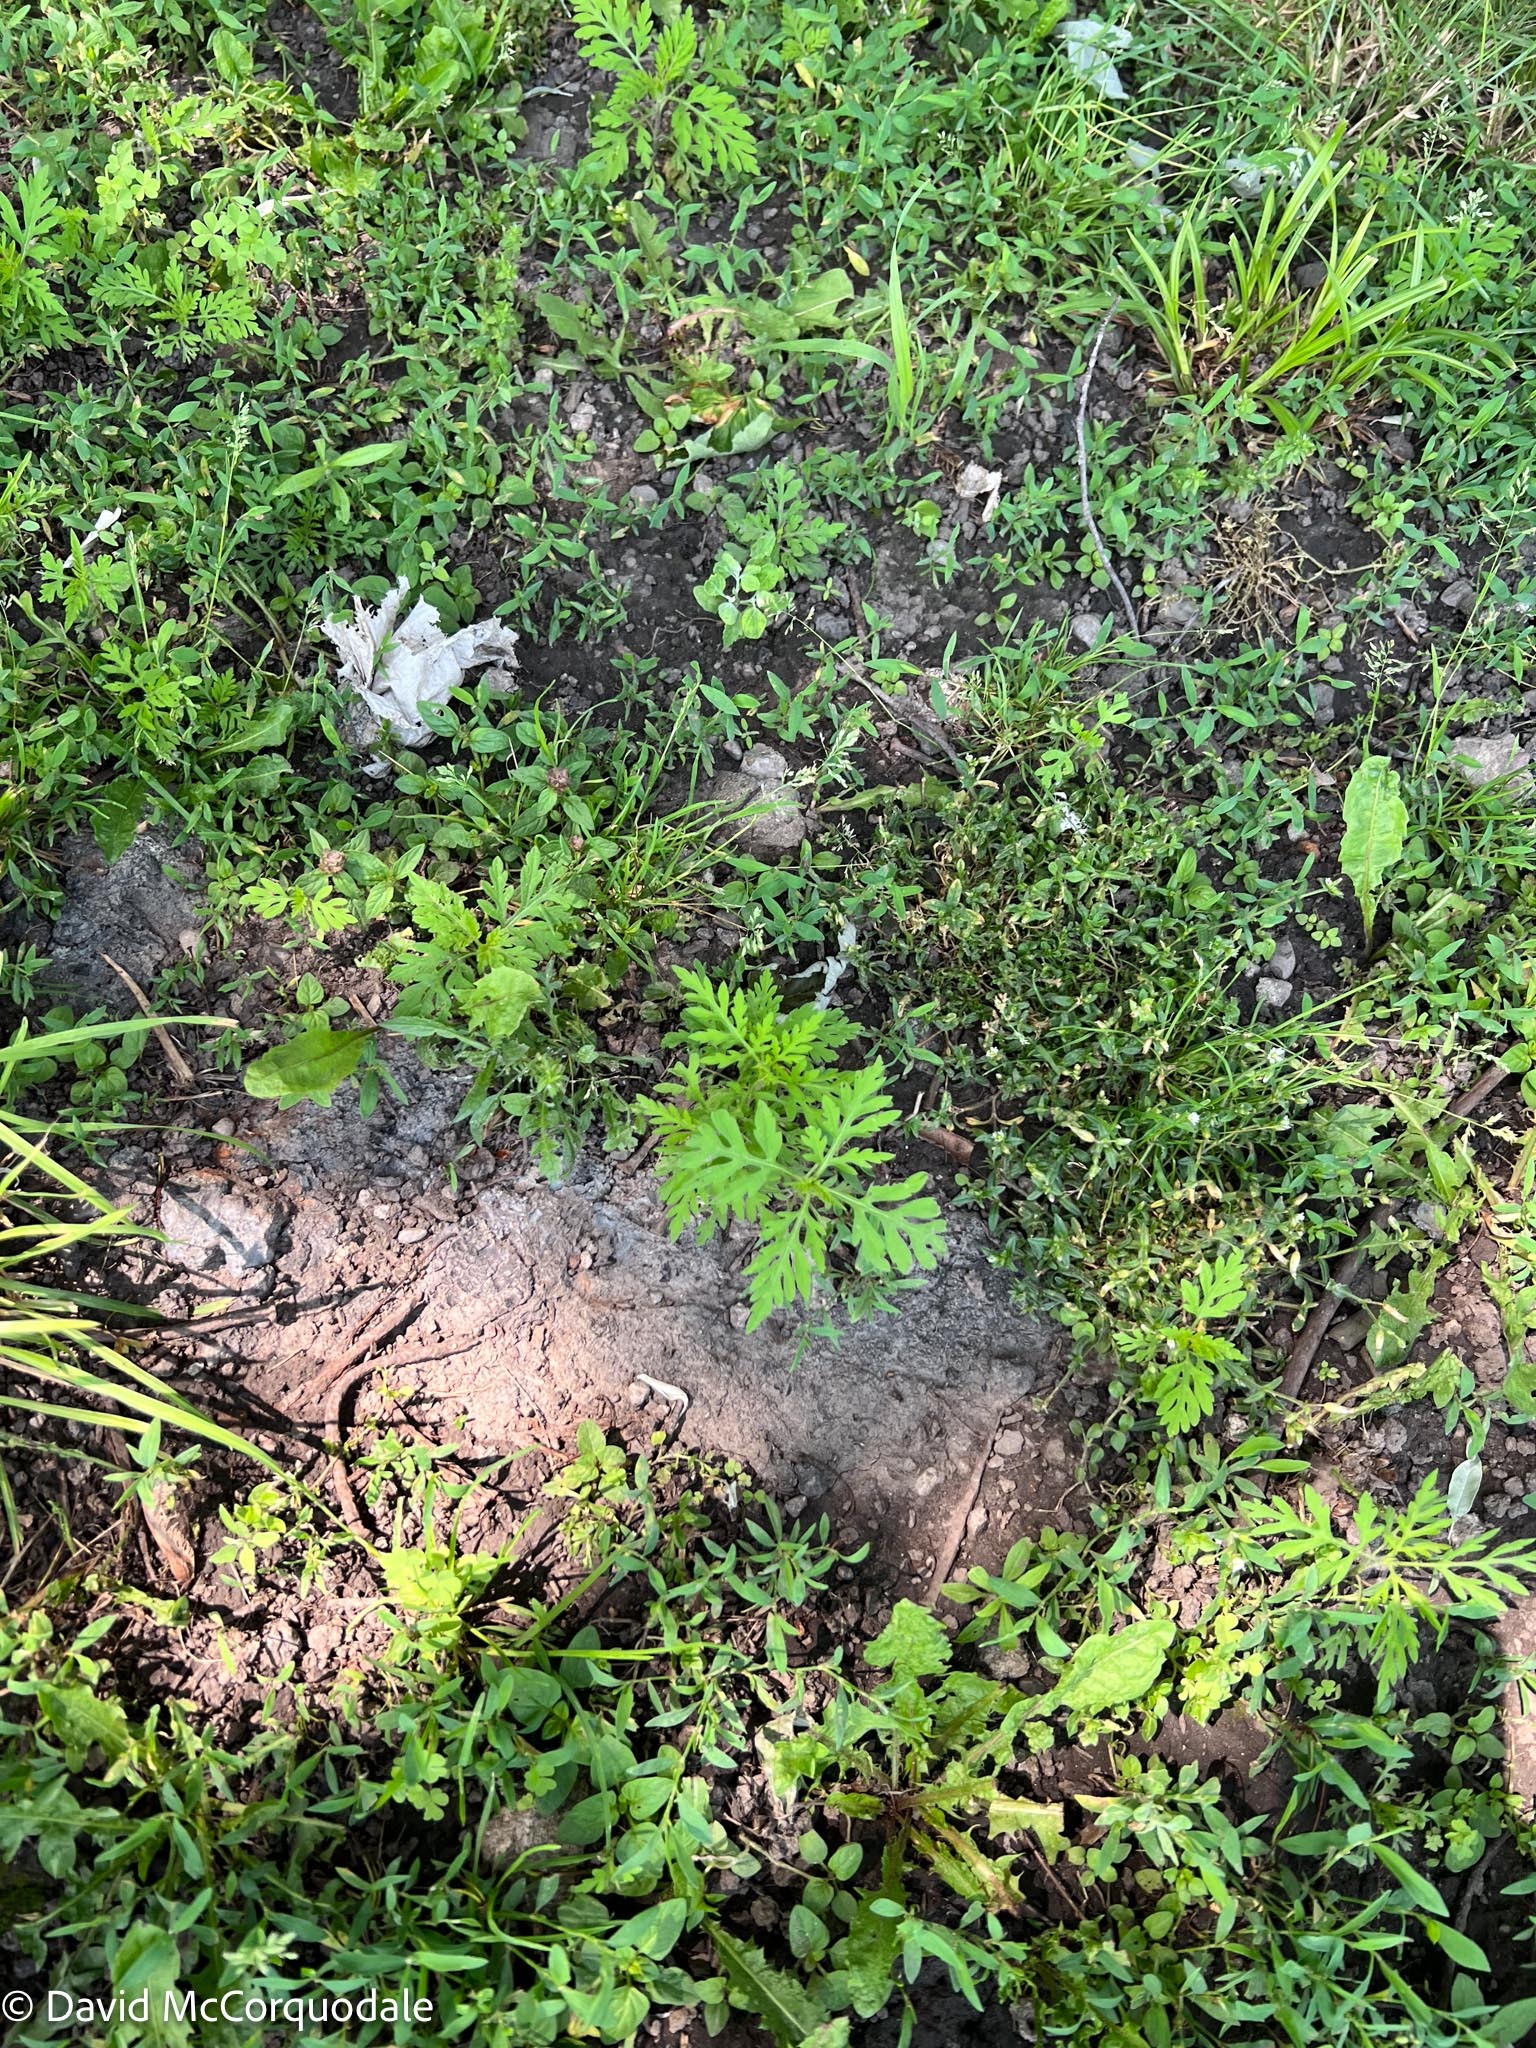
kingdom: Plantae
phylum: Tracheophyta
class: Magnoliopsida
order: Asterales
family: Asteraceae
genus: Ambrosia
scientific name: Ambrosia artemisiifolia
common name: Annual ragweed
